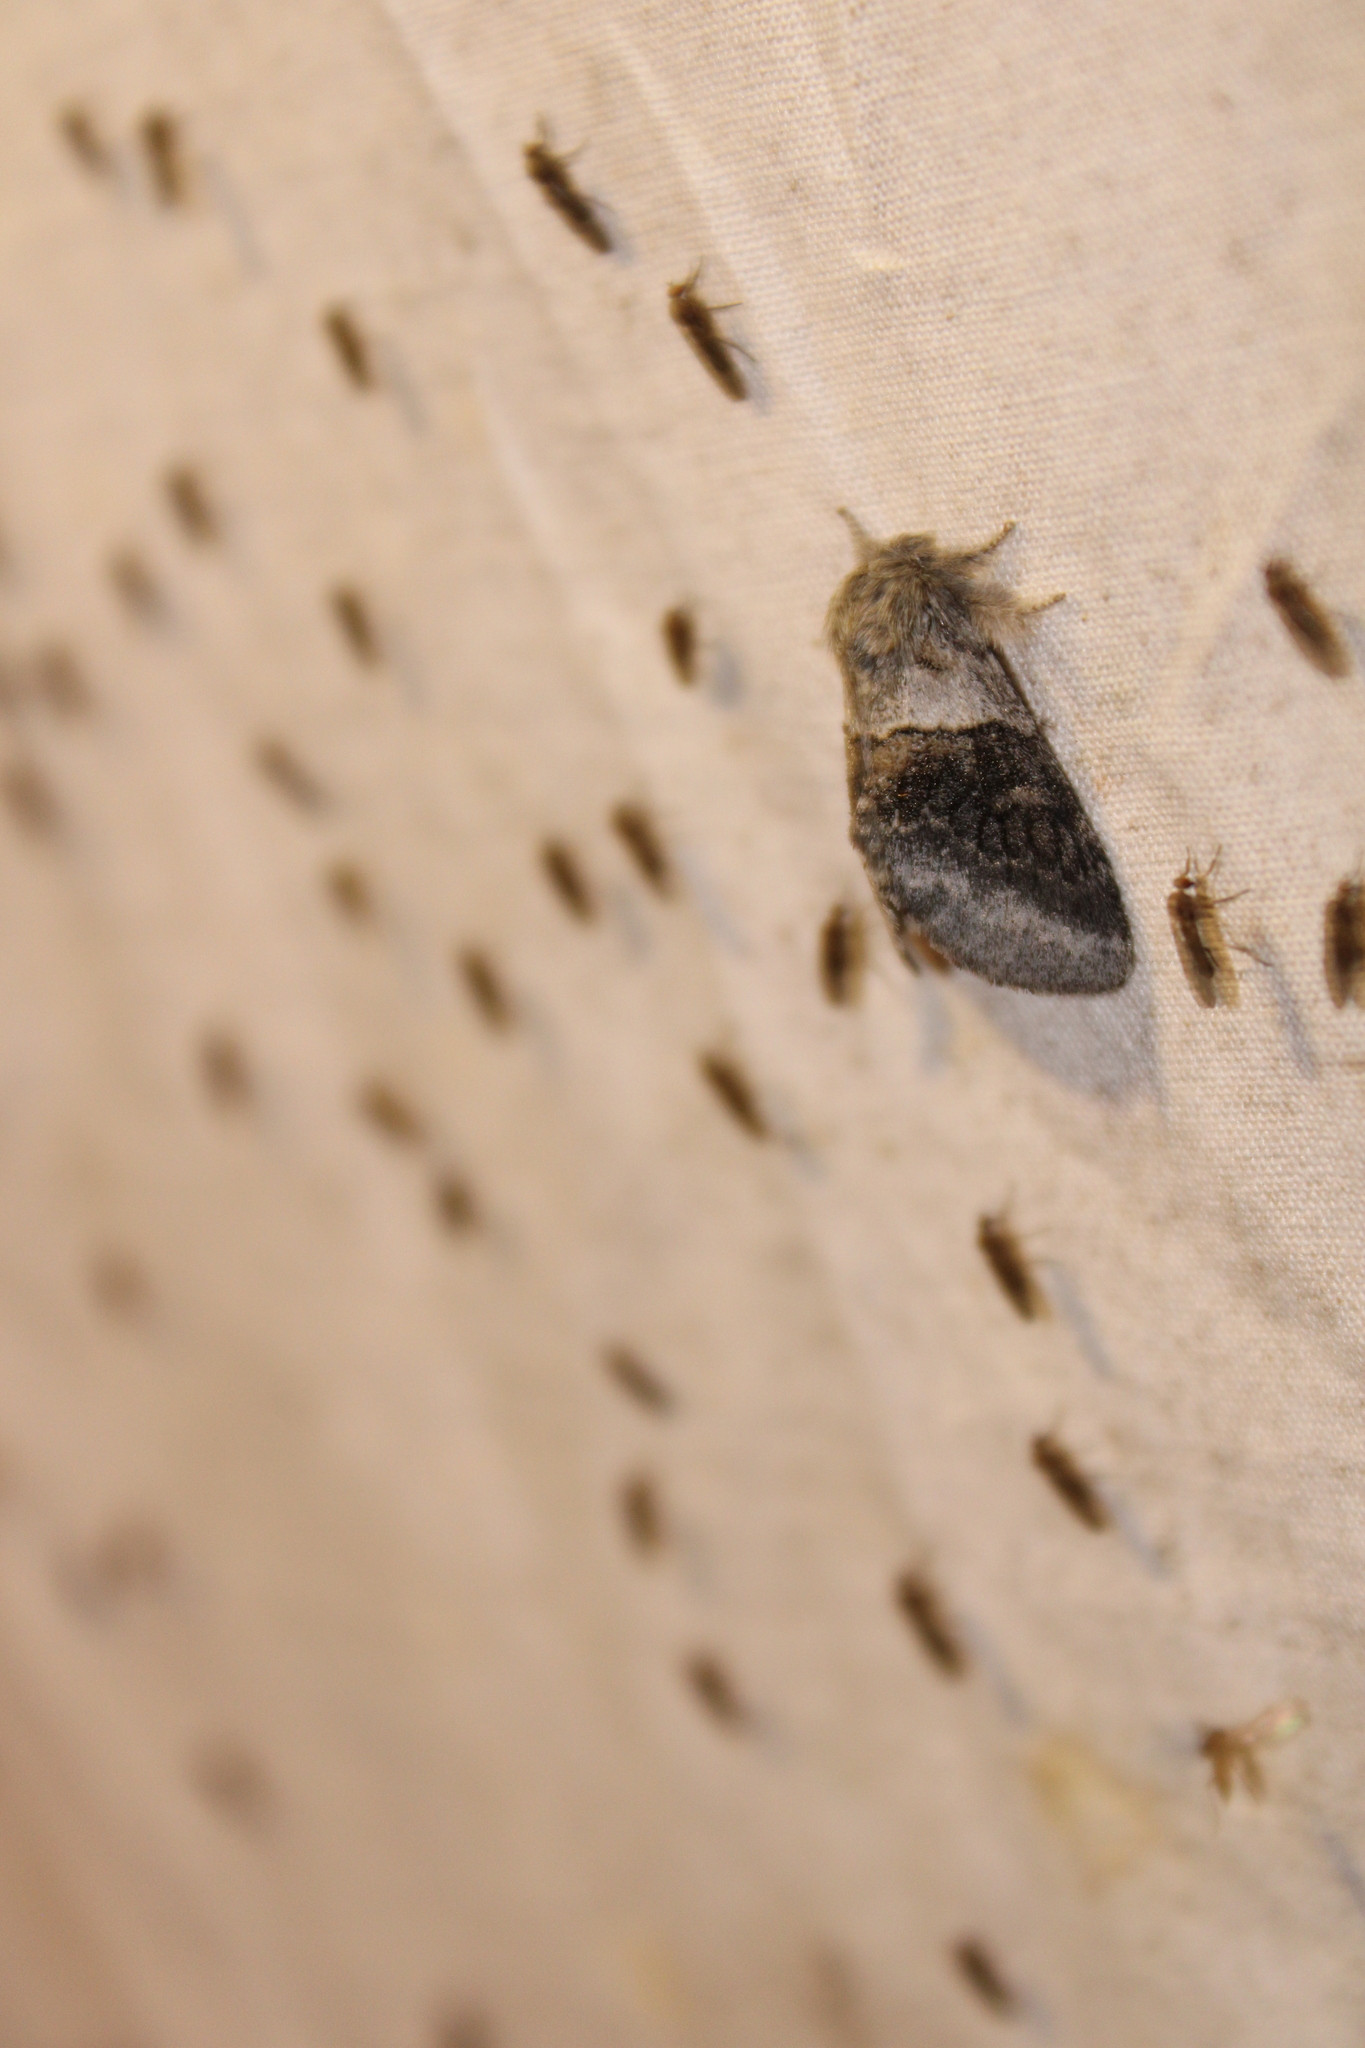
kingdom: Animalia
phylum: Arthropoda
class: Insecta
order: Lepidoptera
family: Notodontidae
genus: Gluphisia
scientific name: Gluphisia septentrionis
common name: Common gluphisia
